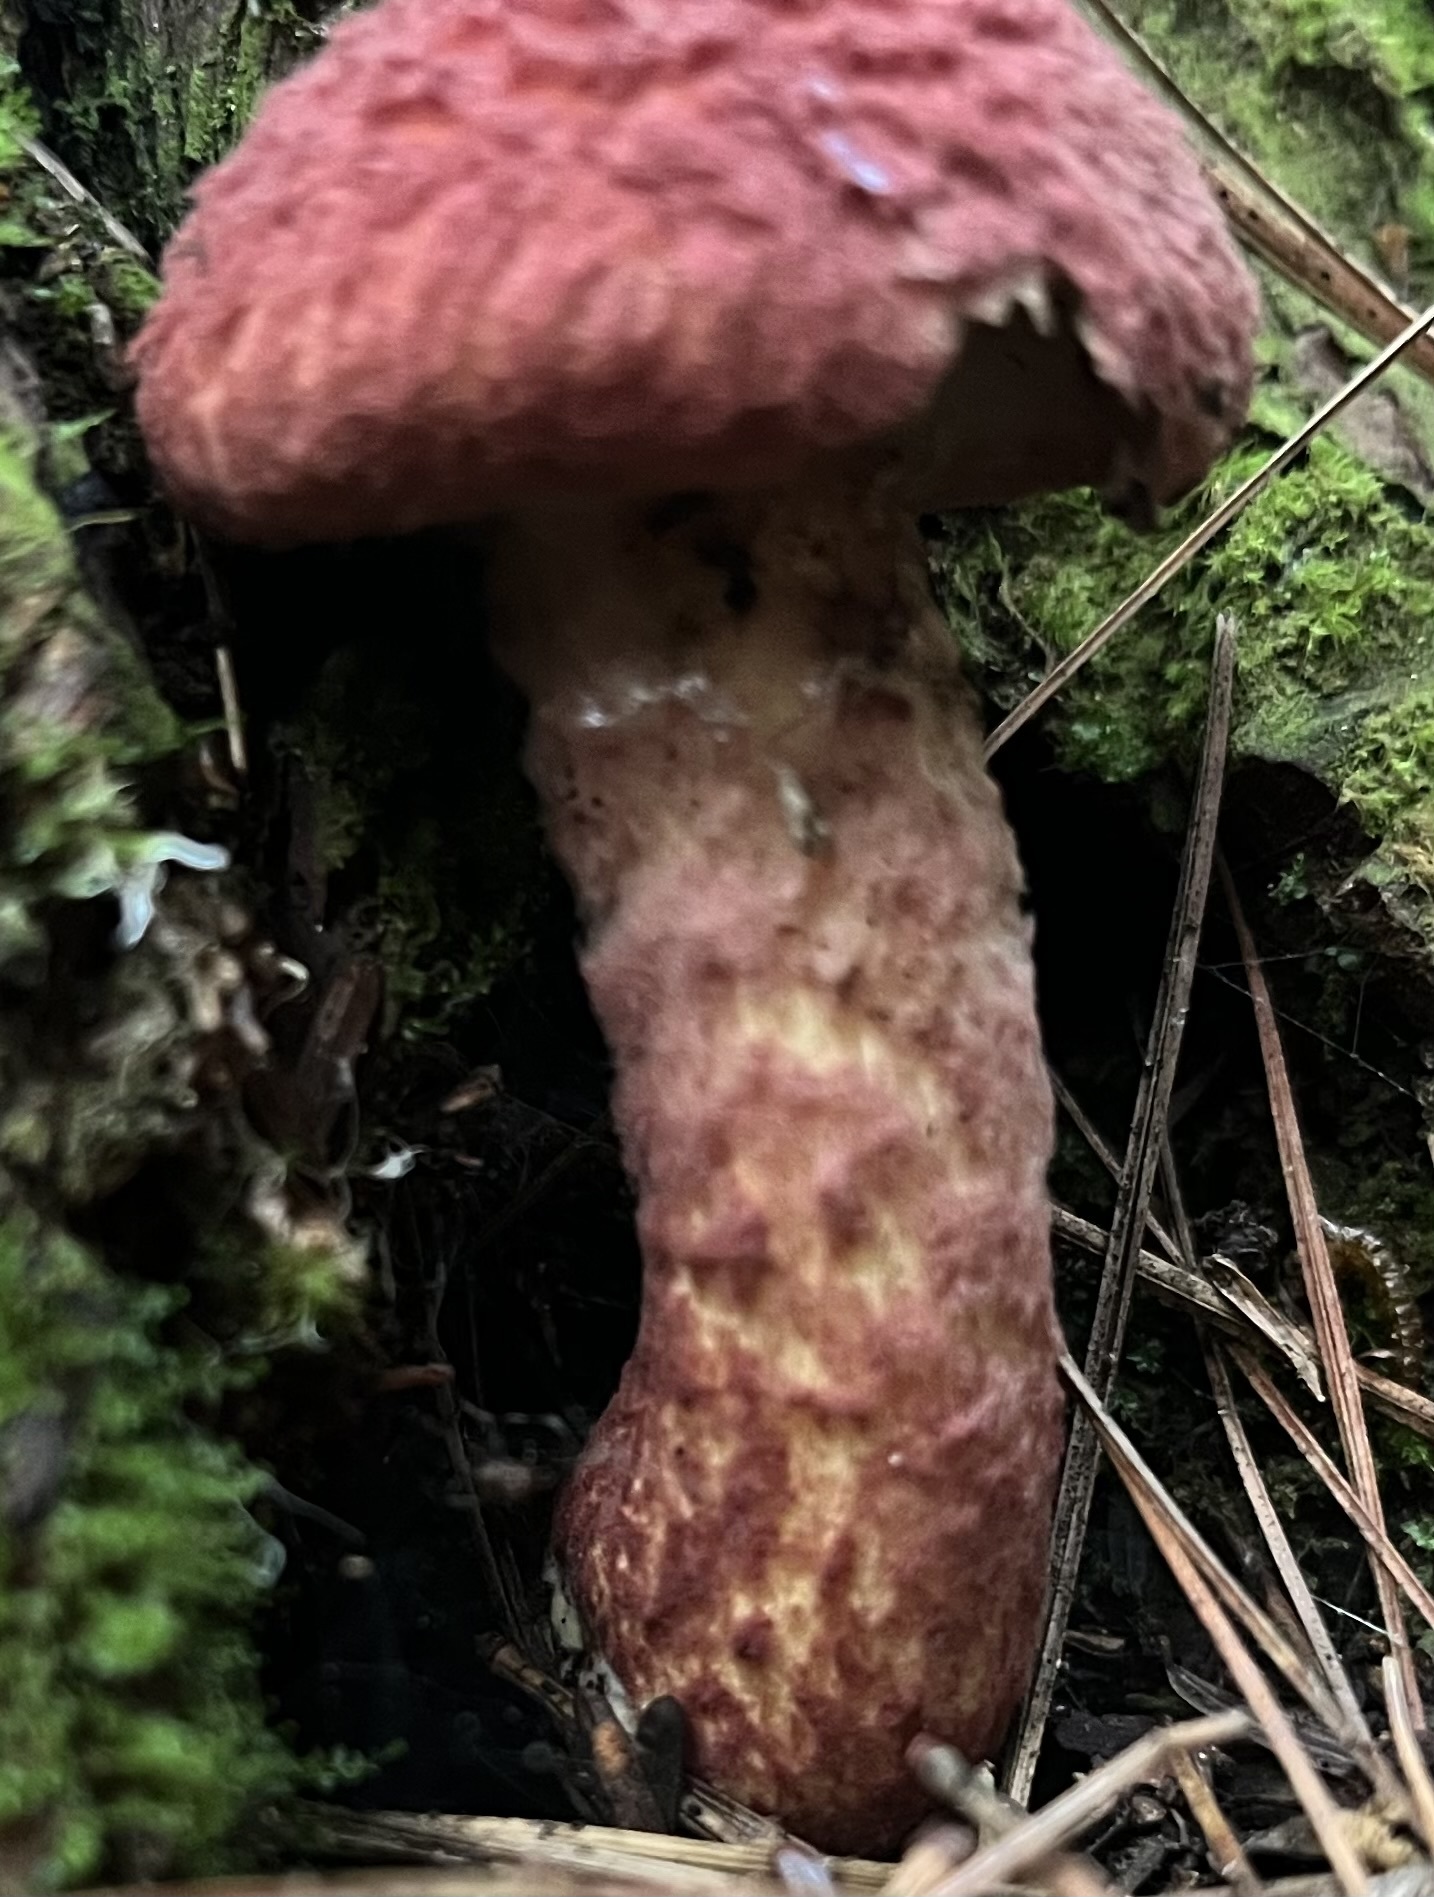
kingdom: Fungi
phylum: Basidiomycota
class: Agaricomycetes
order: Boletales
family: Suillaceae
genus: Suillus
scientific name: Suillus spraguei
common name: Painted suillus
